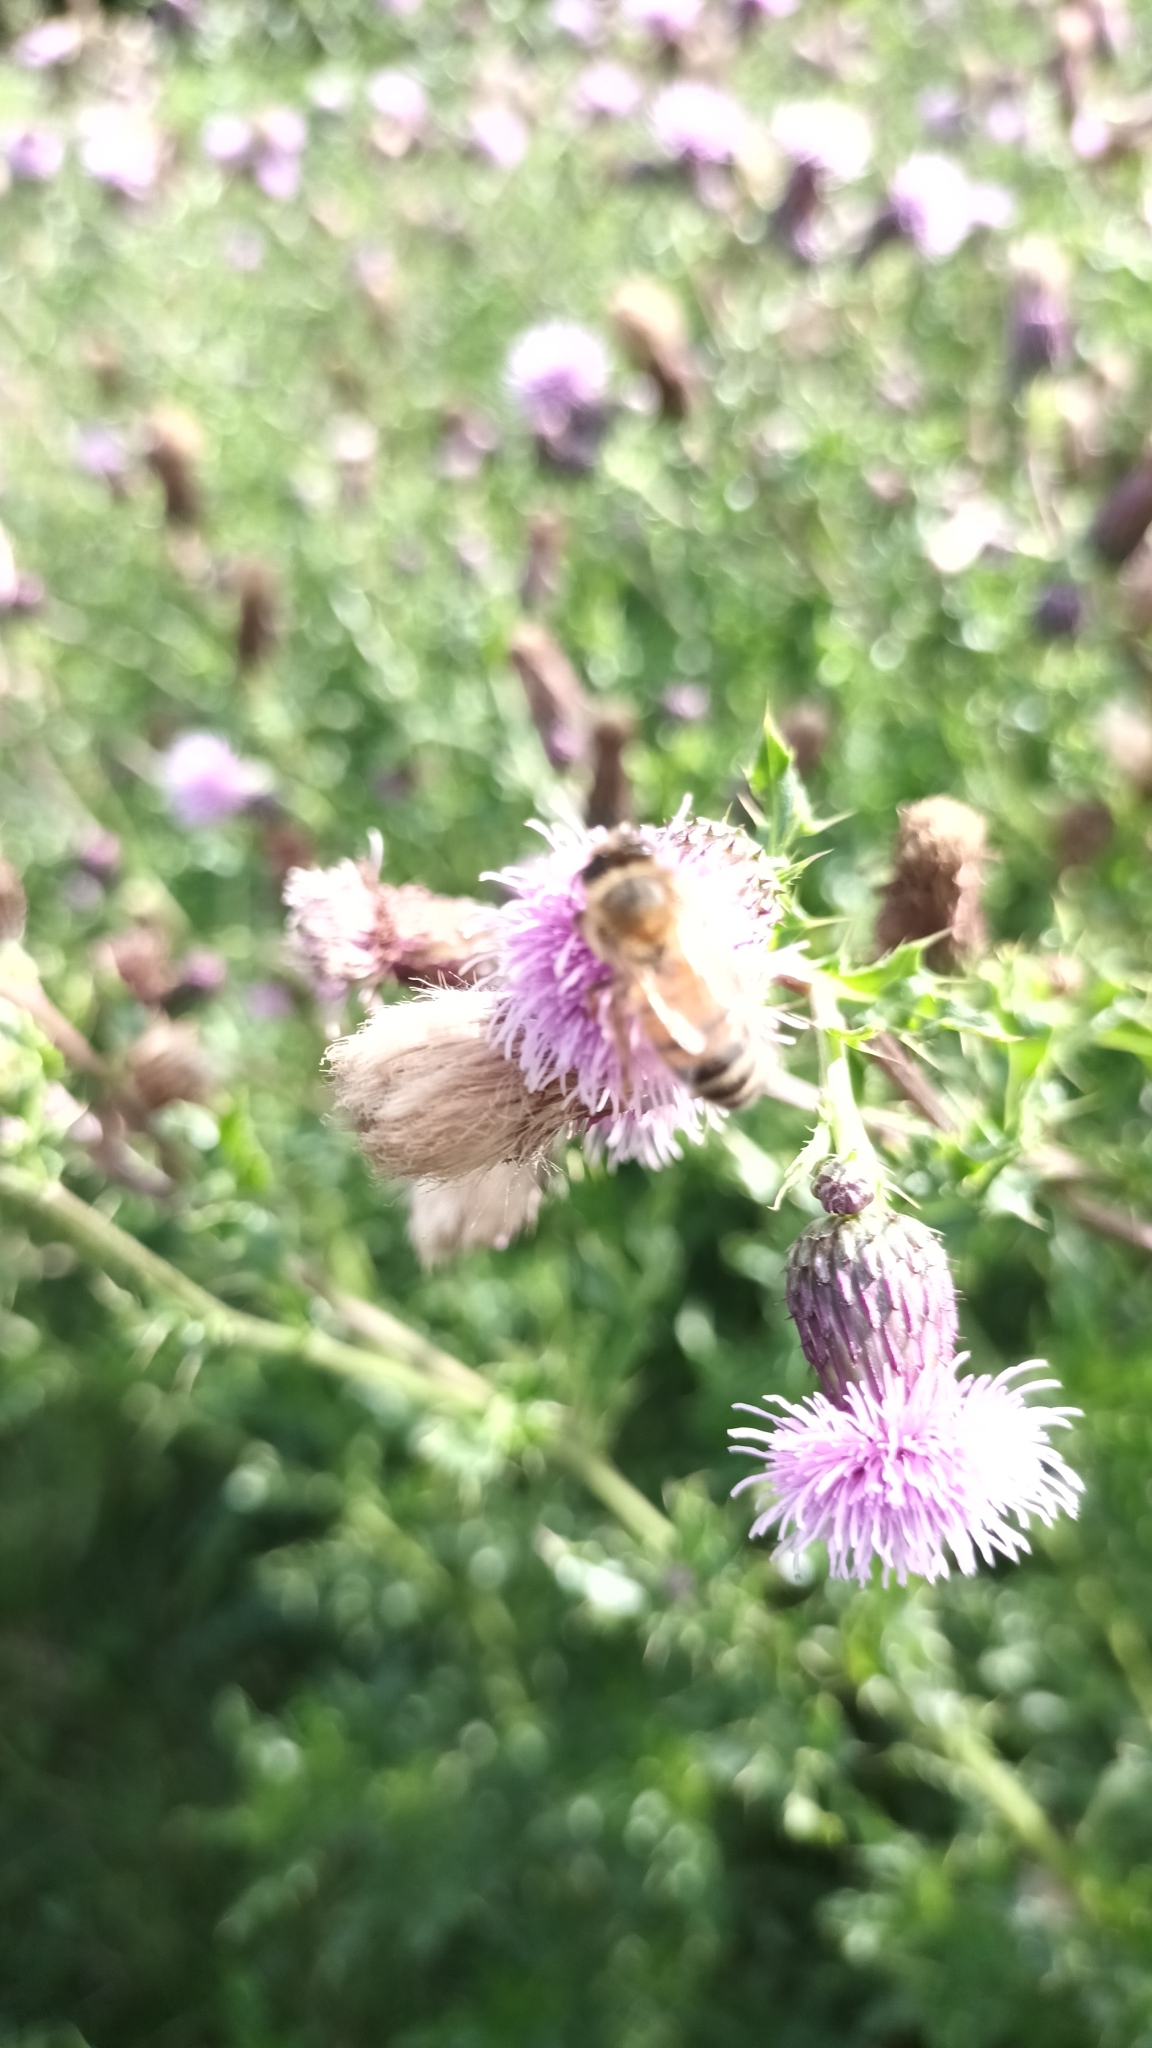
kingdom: Animalia
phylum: Arthropoda
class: Insecta
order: Hymenoptera
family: Apidae
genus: Apis
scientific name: Apis mellifera
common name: Honey bee
